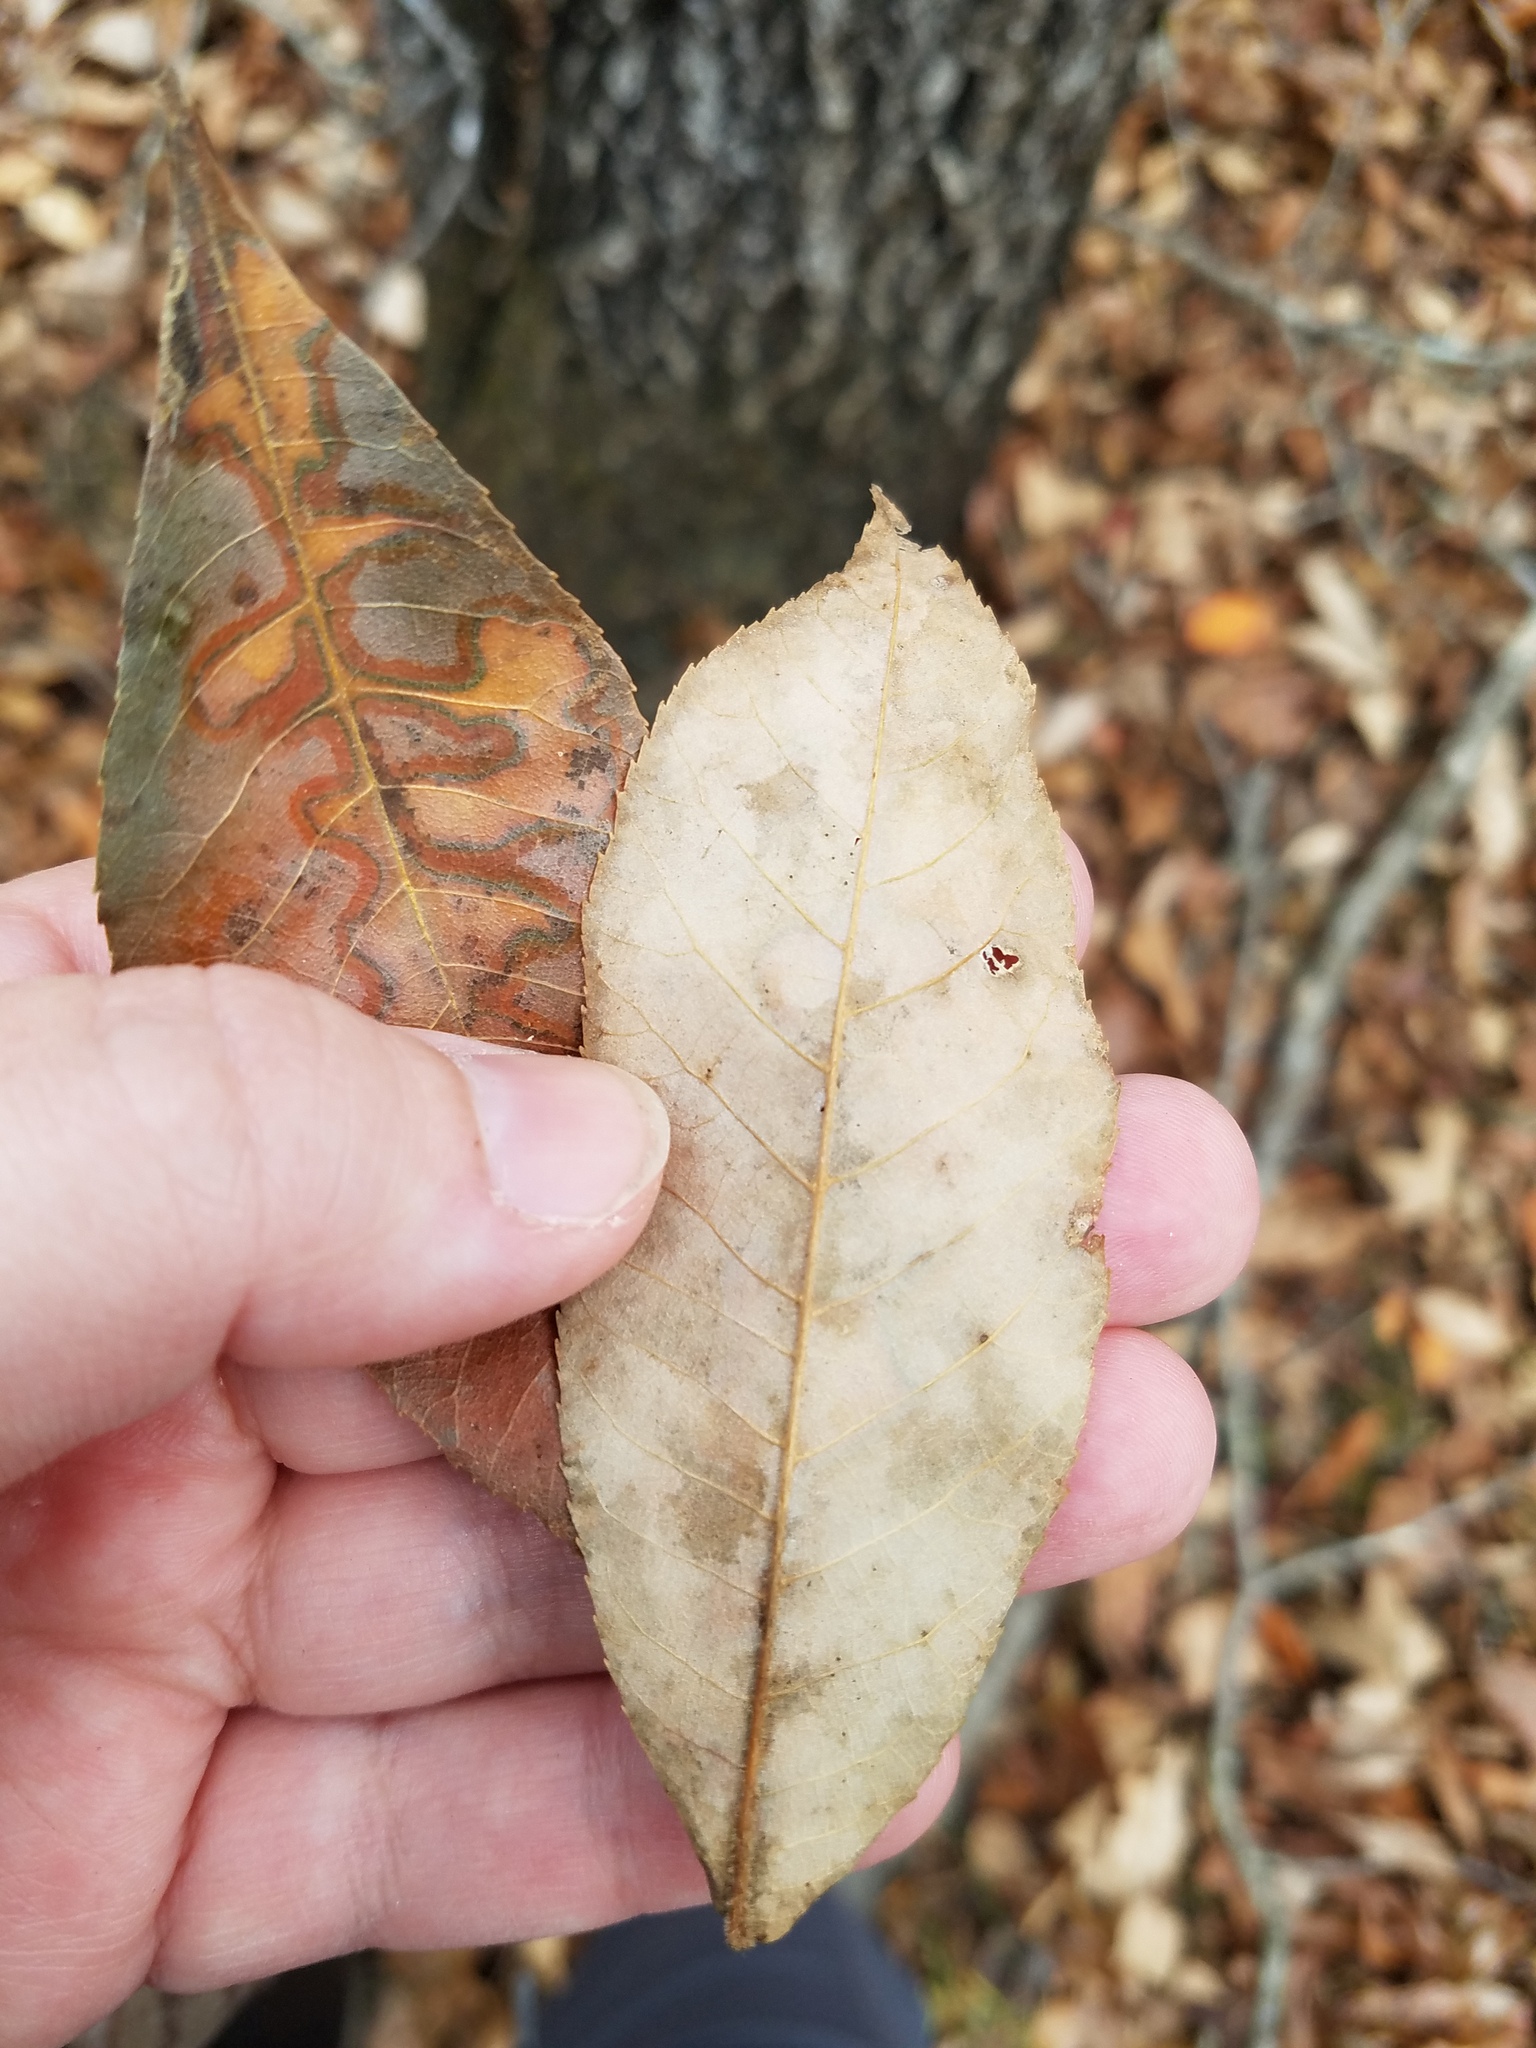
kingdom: Plantae
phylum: Tracheophyta
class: Magnoliopsida
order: Fagales
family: Juglandaceae
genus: Carya
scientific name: Carya pallida
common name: Sand hickory
